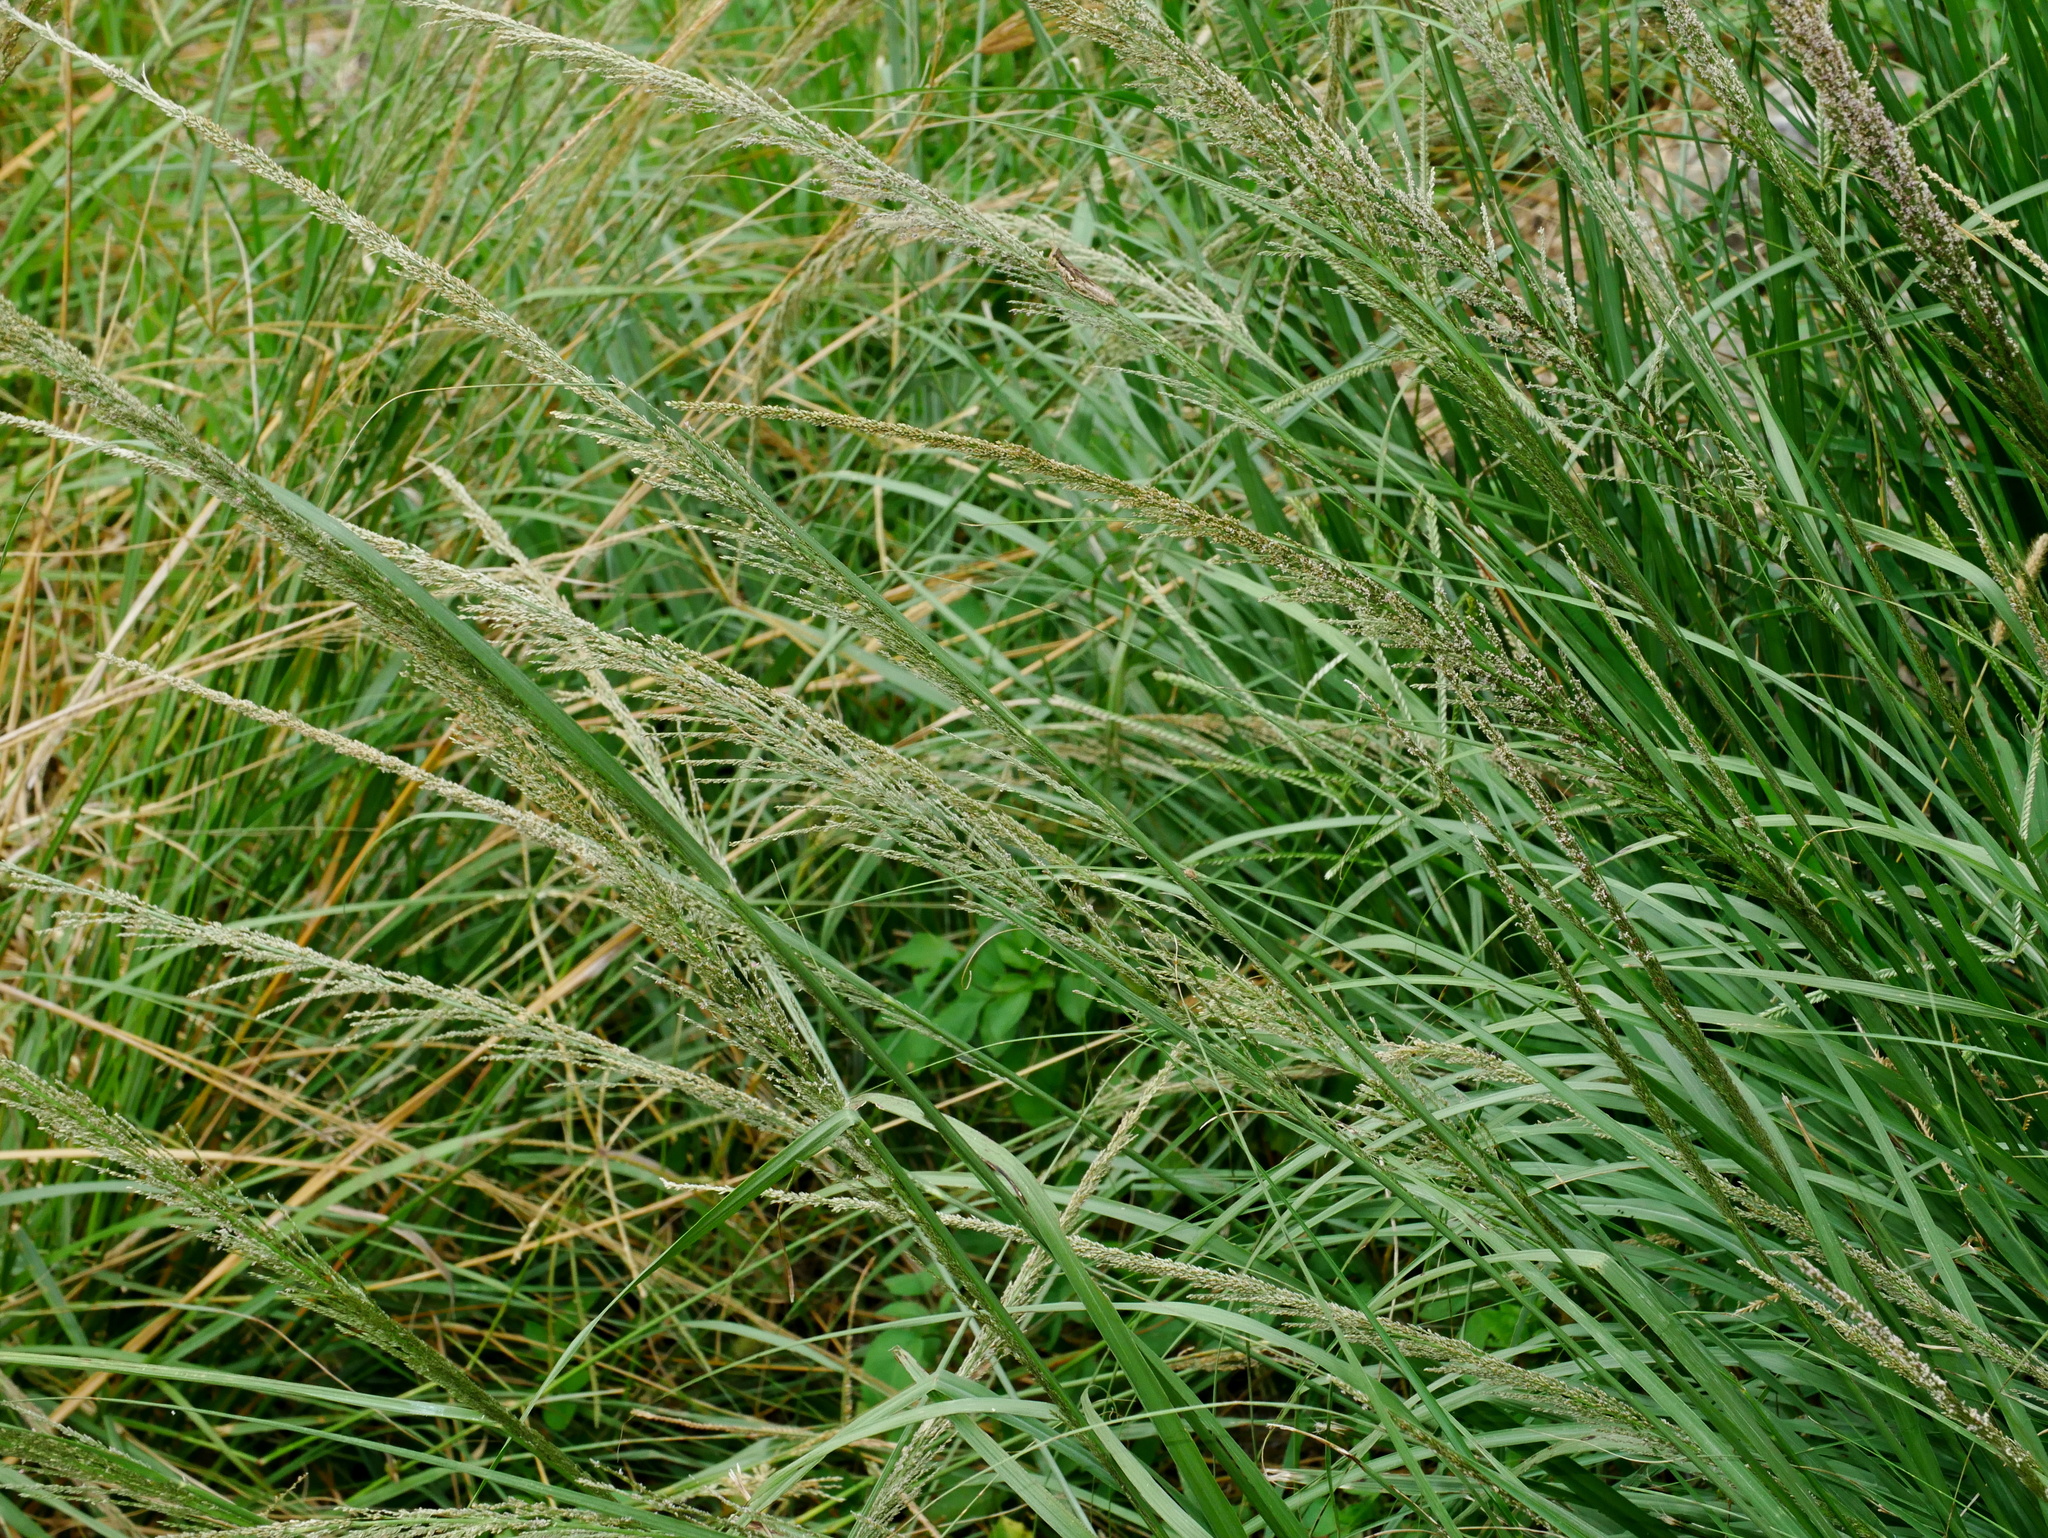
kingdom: Plantae
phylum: Tracheophyta
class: Liliopsida
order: Poales
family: Poaceae
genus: Sporobolus
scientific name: Sporobolus indicus
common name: Smut grass
